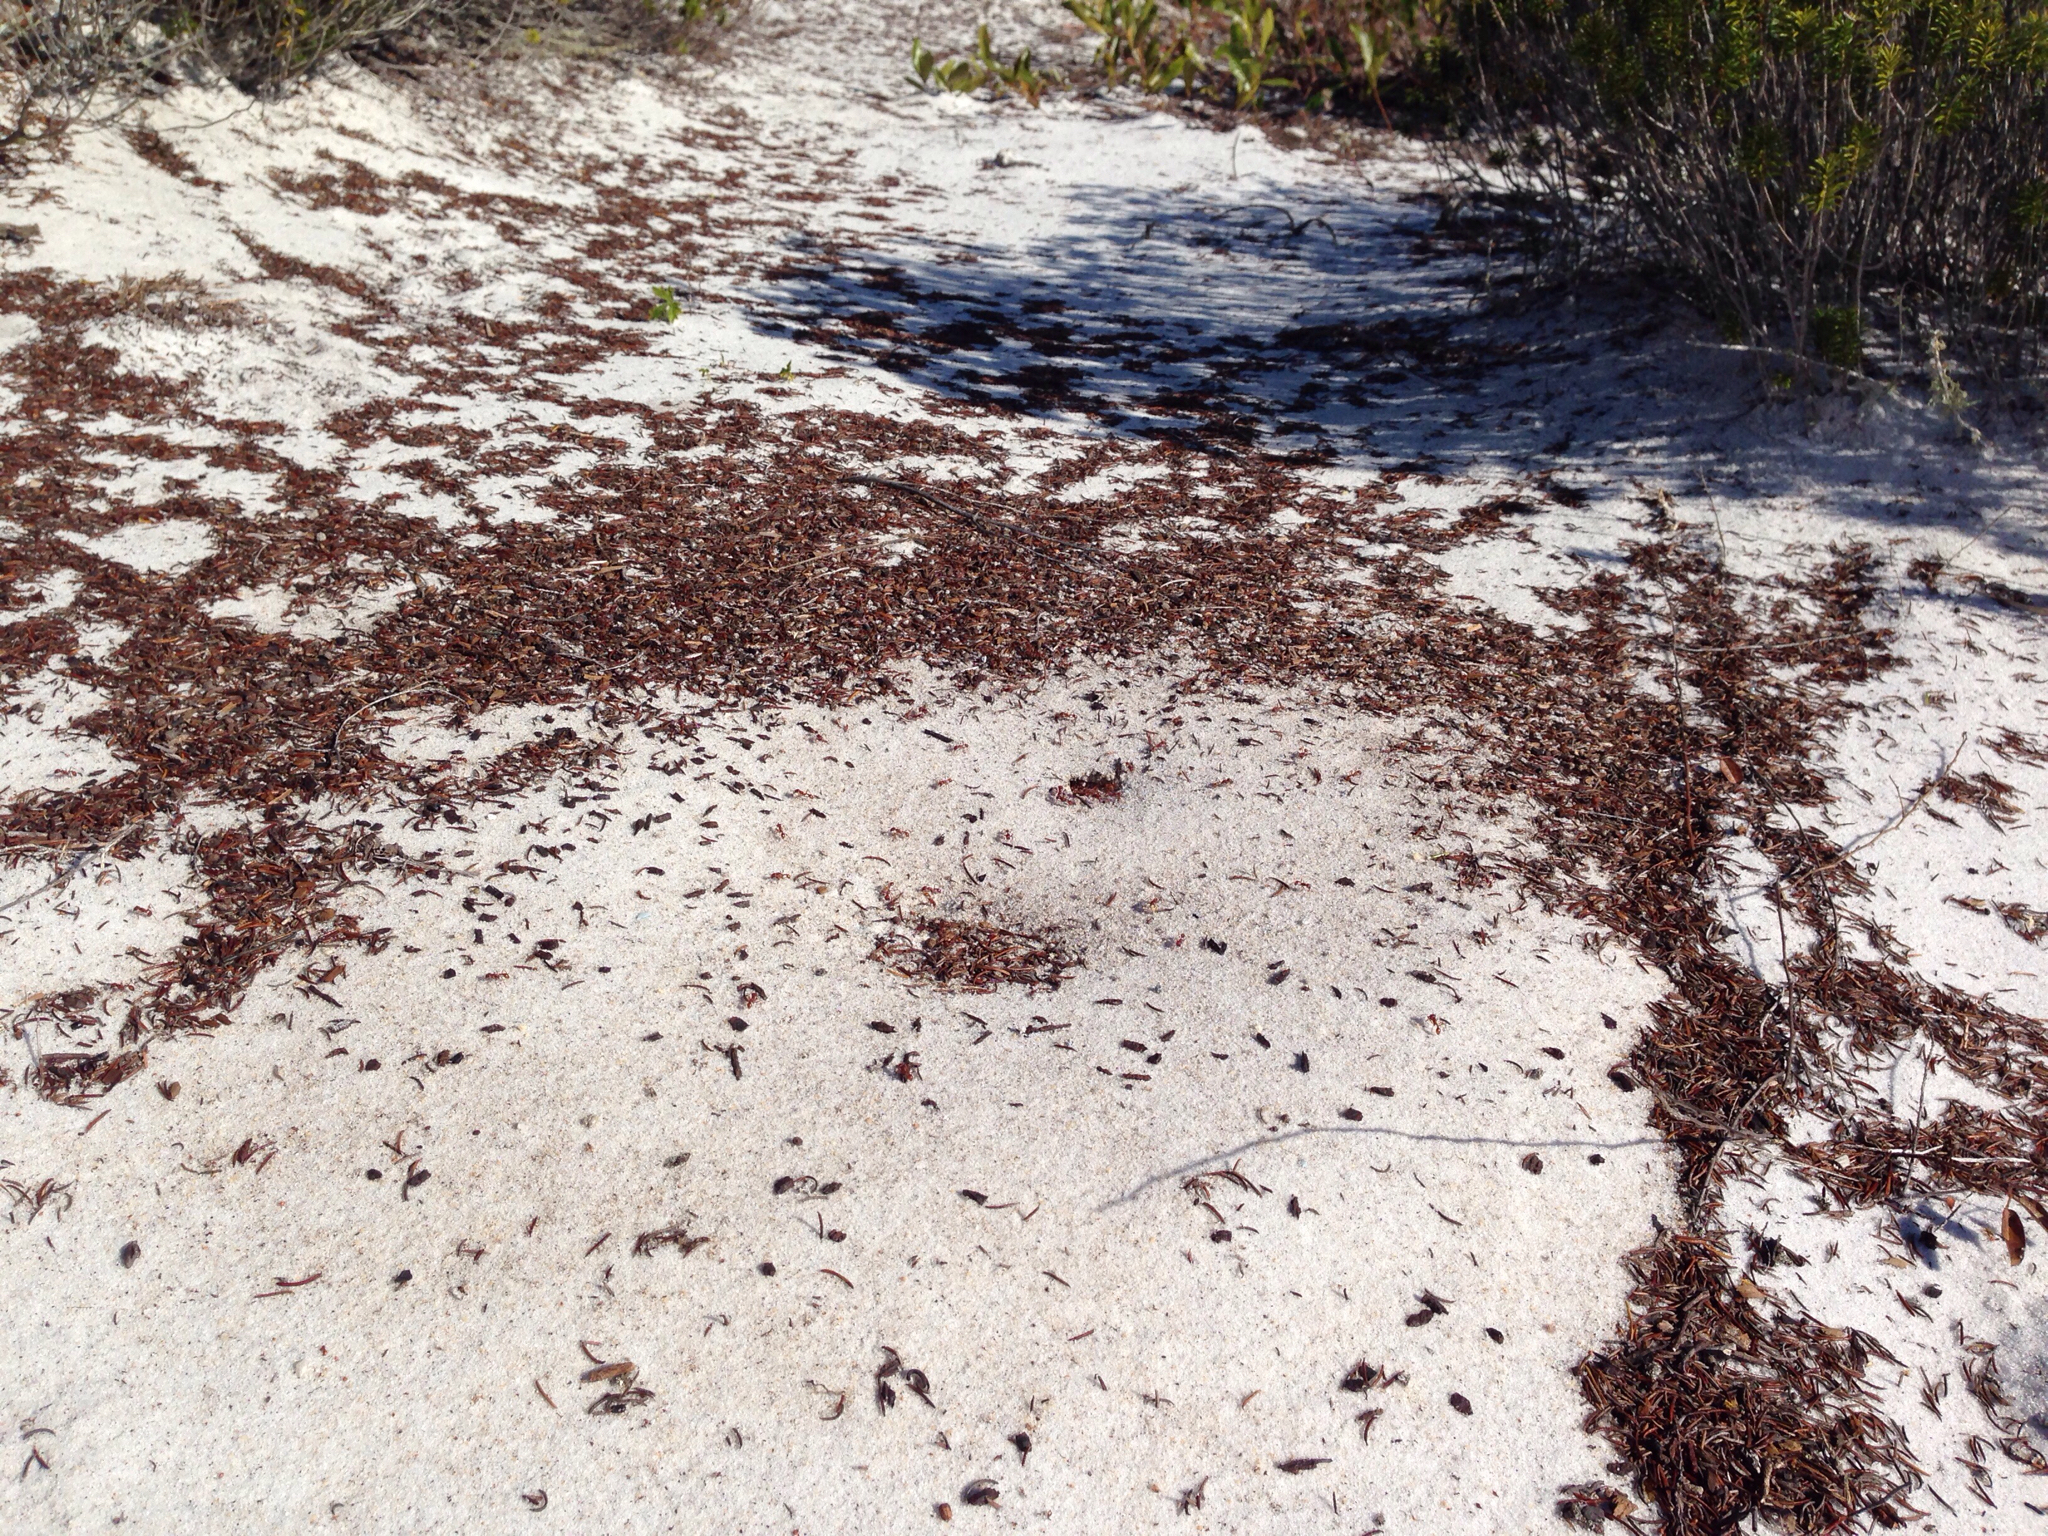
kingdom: Animalia
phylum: Arthropoda
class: Insecta
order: Hymenoptera
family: Formicidae
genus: Pogonomyrmex
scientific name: Pogonomyrmex badius
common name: Florida harvester ant
